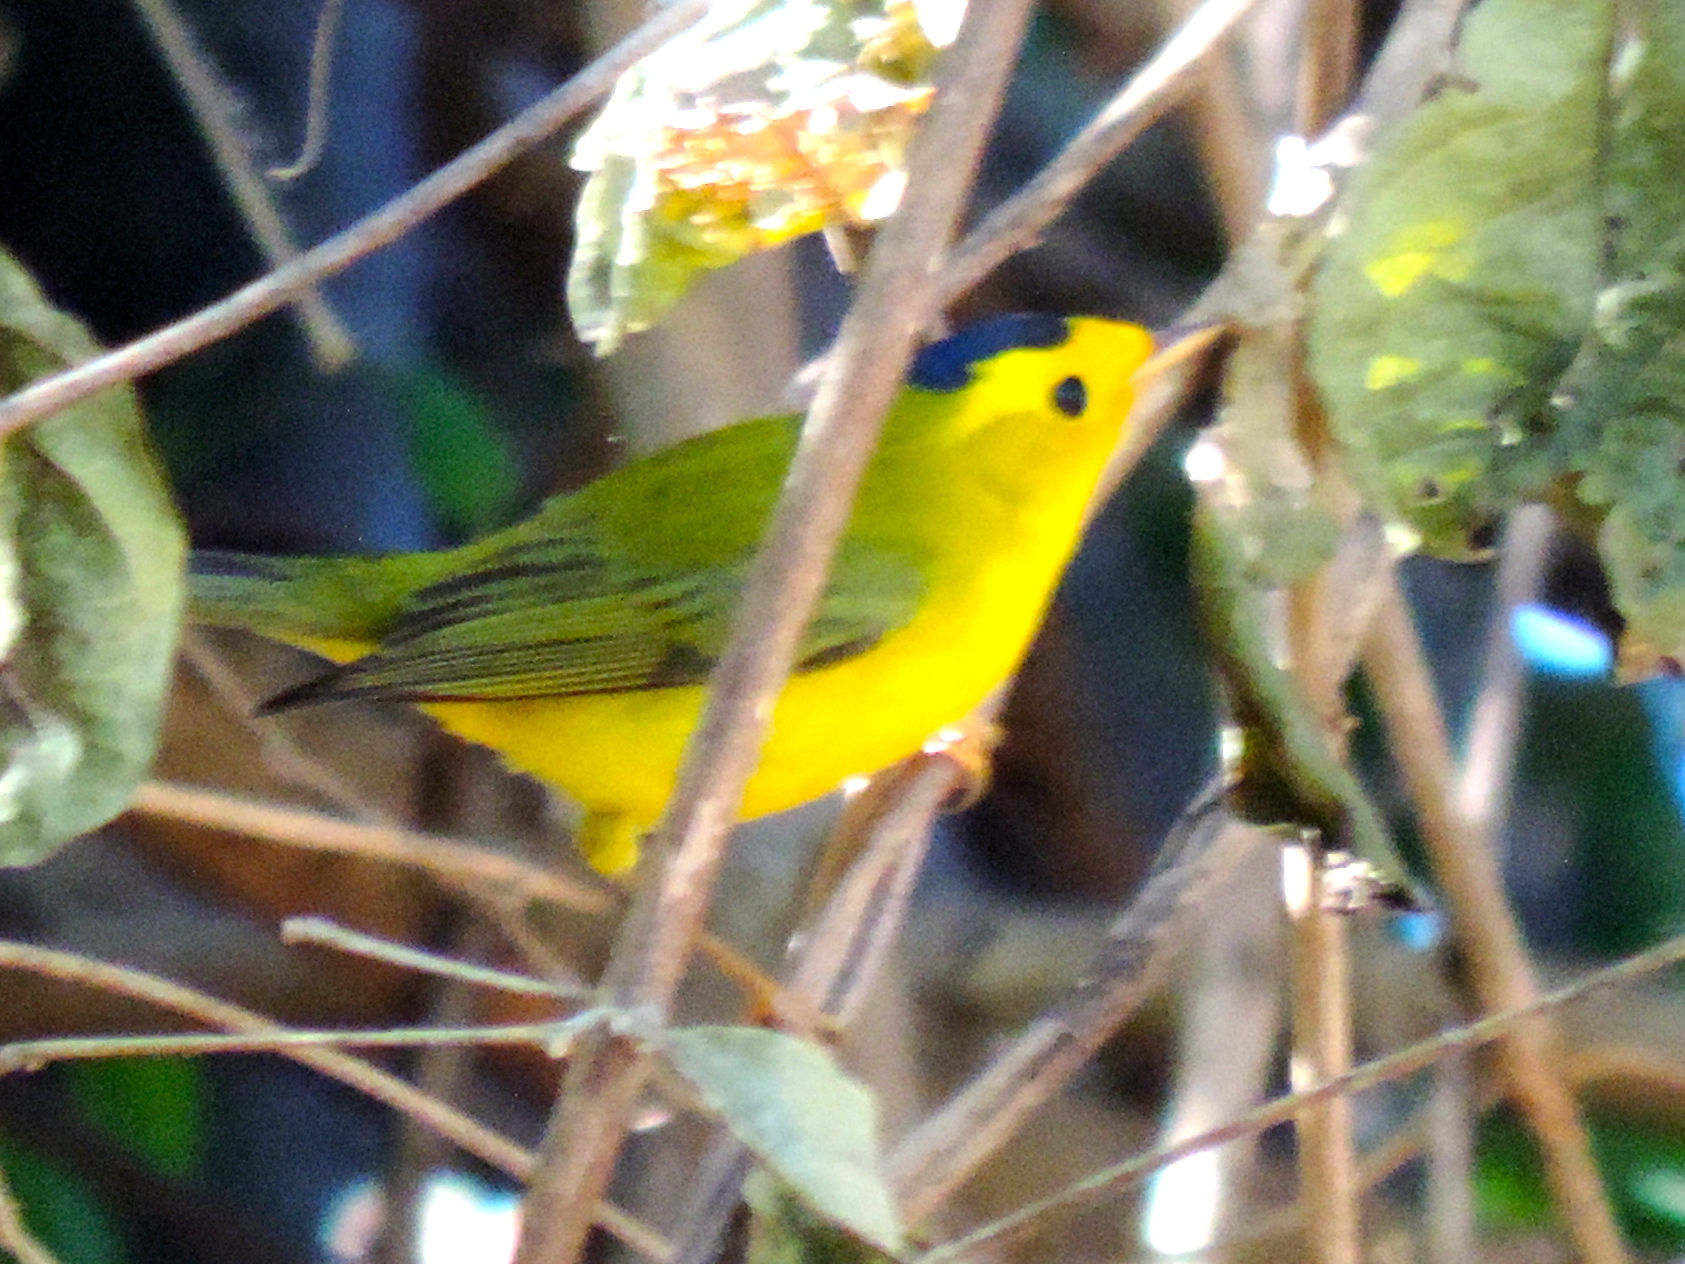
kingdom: Animalia
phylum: Chordata
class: Aves
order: Passeriformes
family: Parulidae
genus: Cardellina
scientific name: Cardellina pusilla
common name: Wilson's warbler
